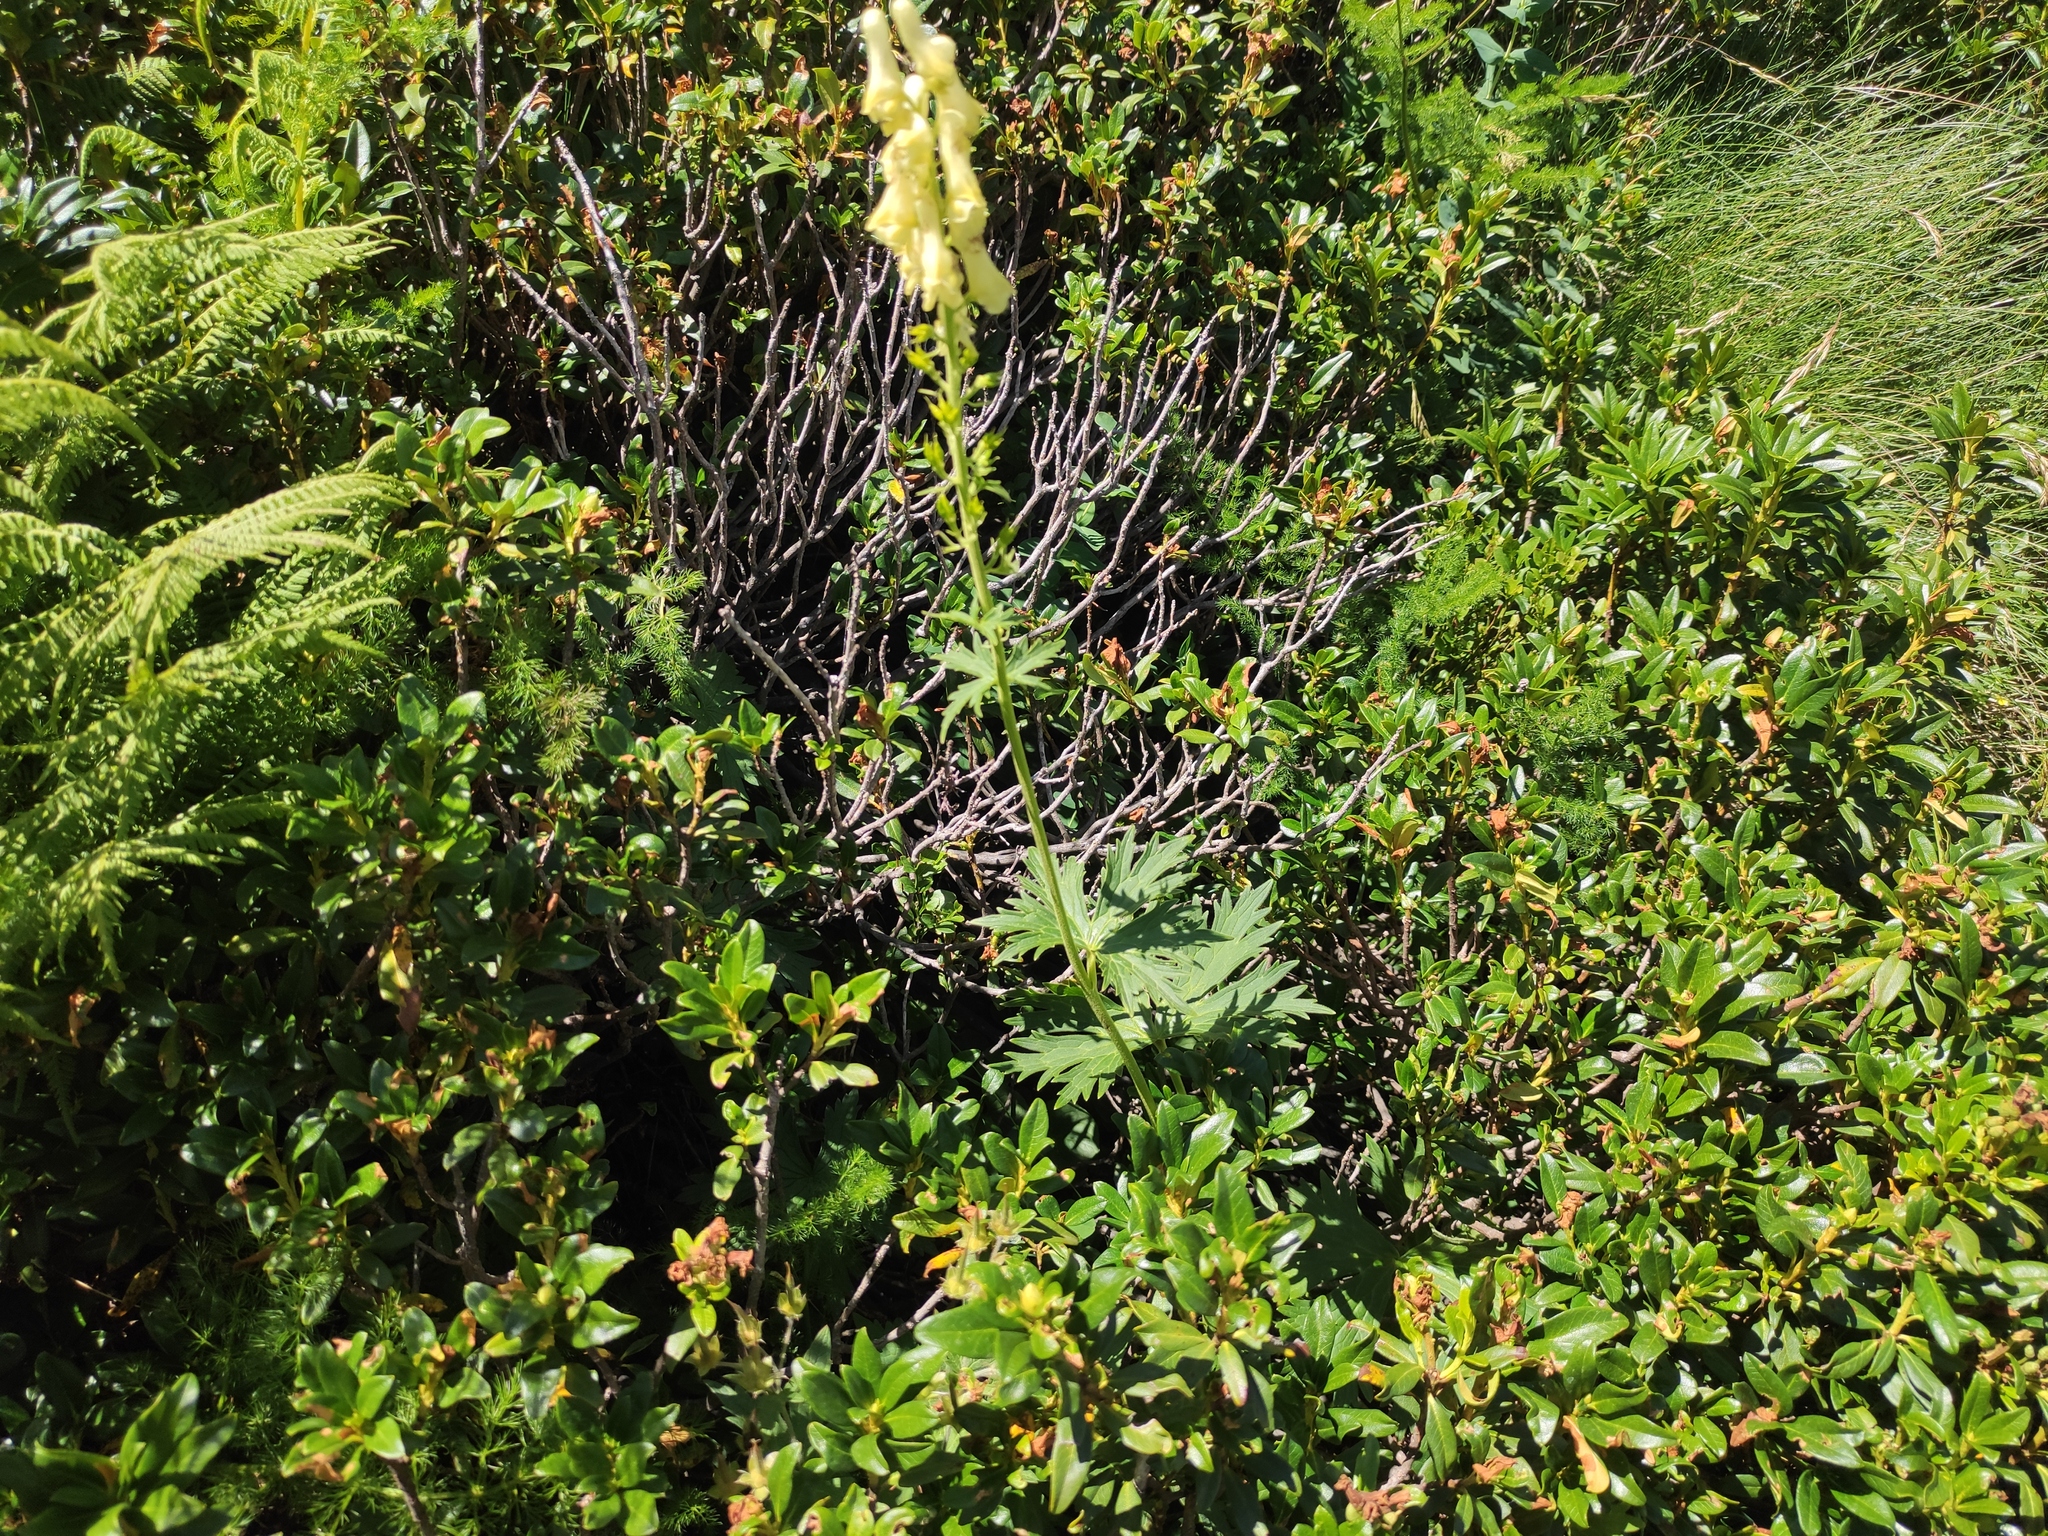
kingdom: Plantae
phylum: Tracheophyta
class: Magnoliopsida
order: Ranunculales
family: Ranunculaceae
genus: Aconitum
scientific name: Aconitum lamarckii
